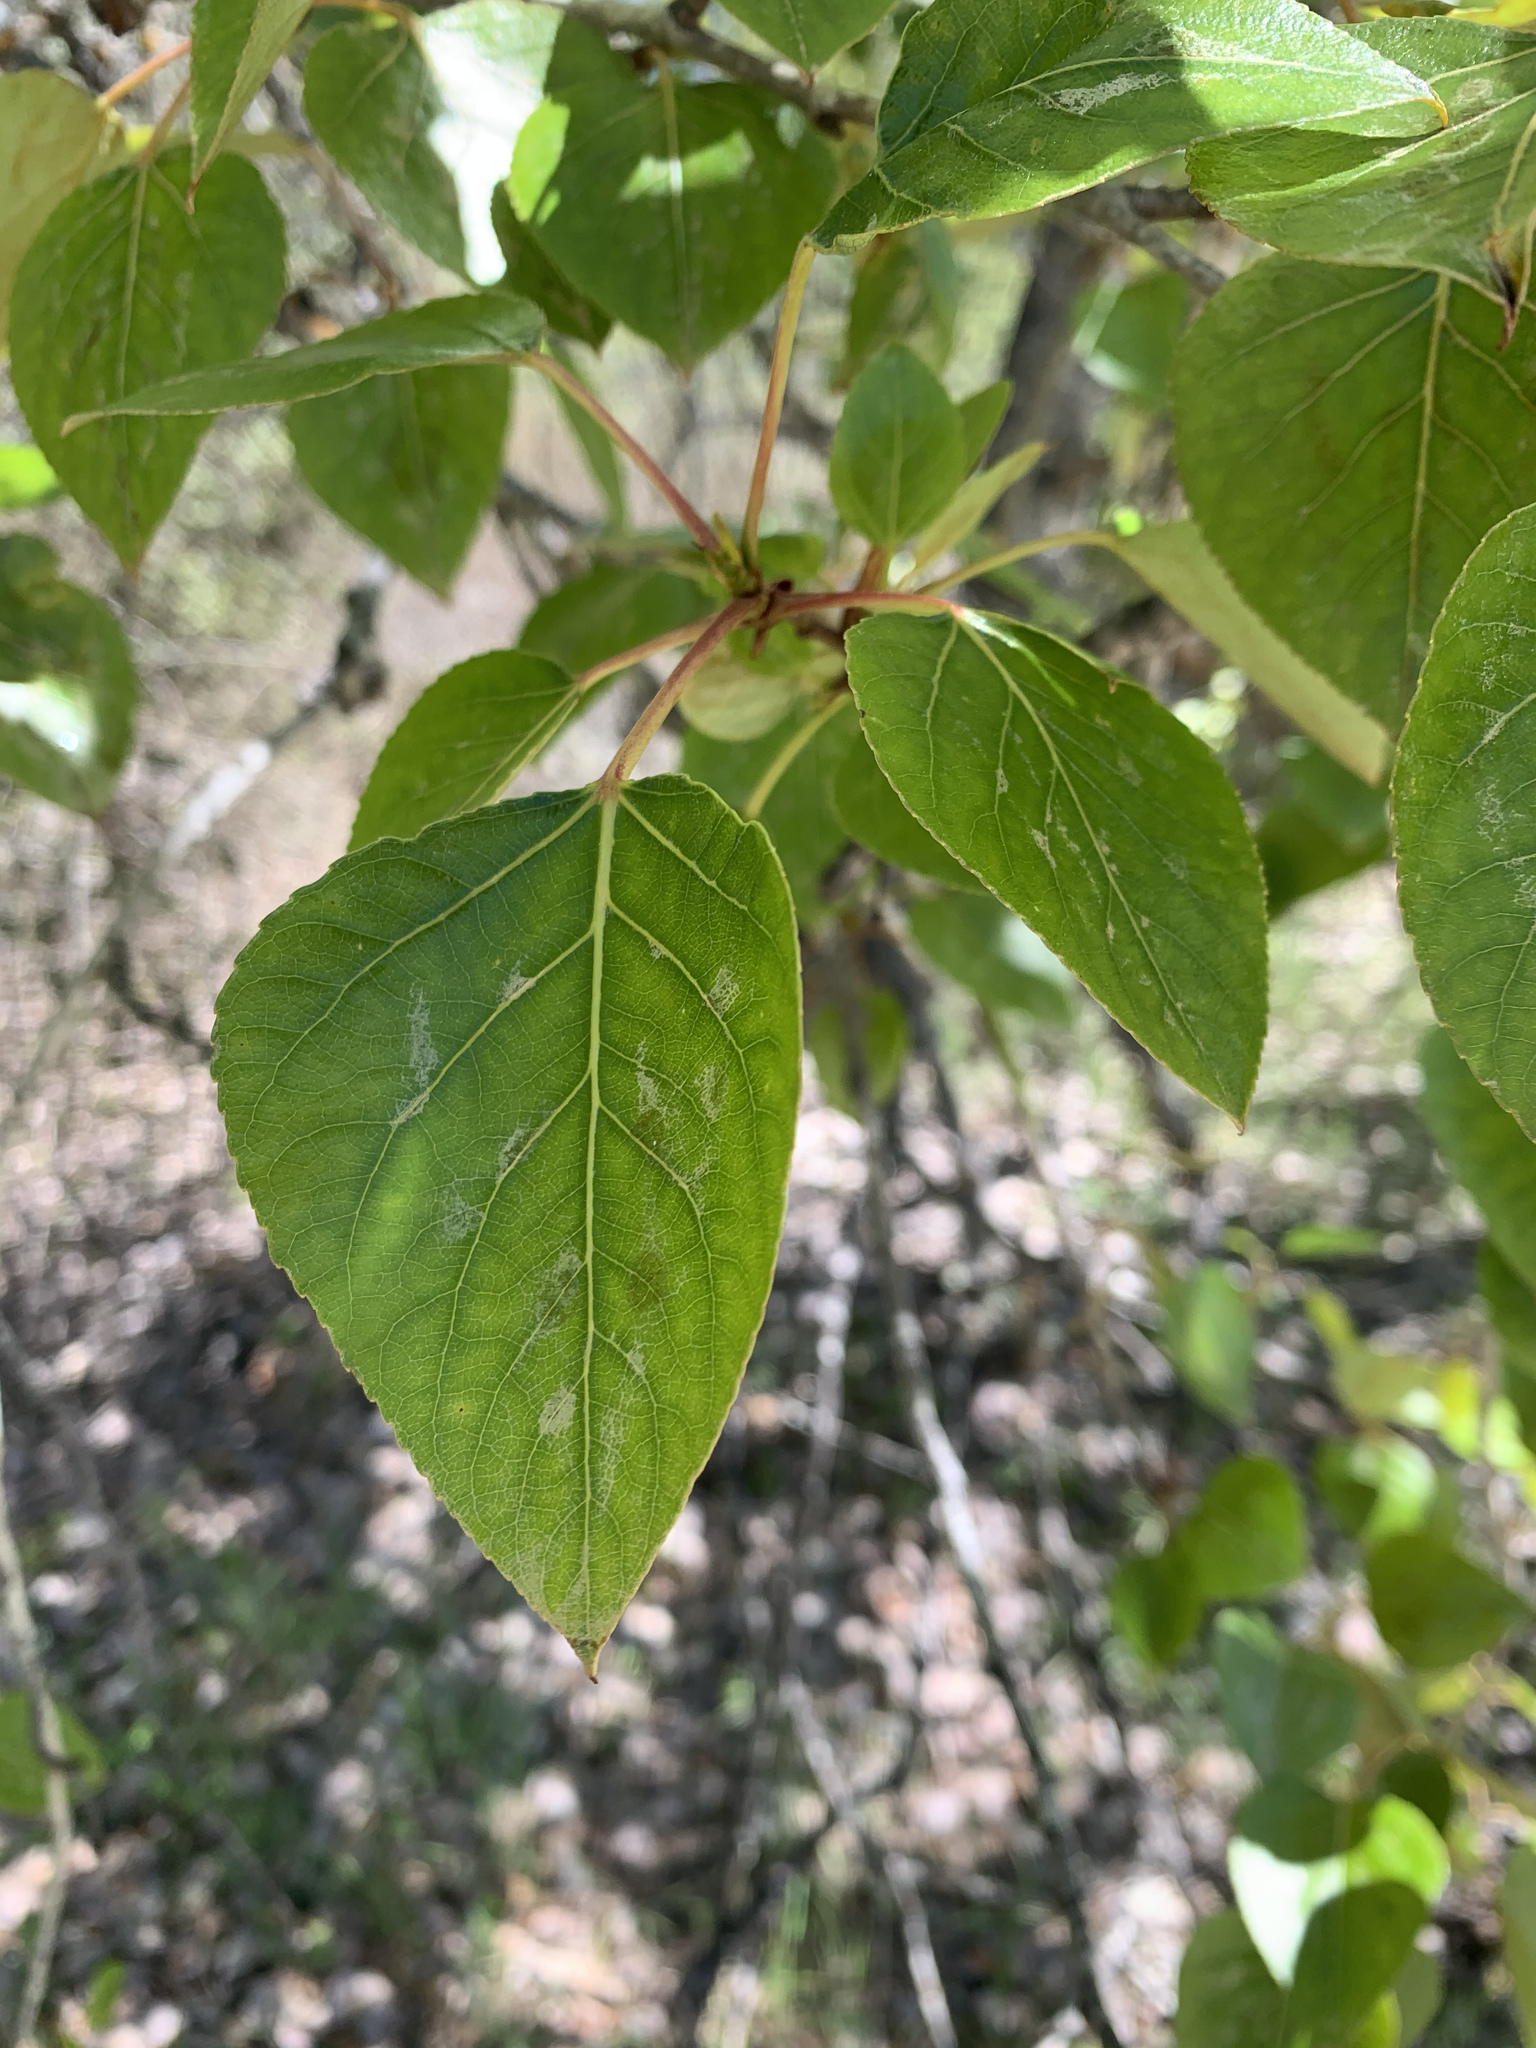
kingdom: Plantae
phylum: Tracheophyta
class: Magnoliopsida
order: Malpighiales
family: Salicaceae
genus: Populus
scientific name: Populus trichocarpa
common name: Black cottonwood
